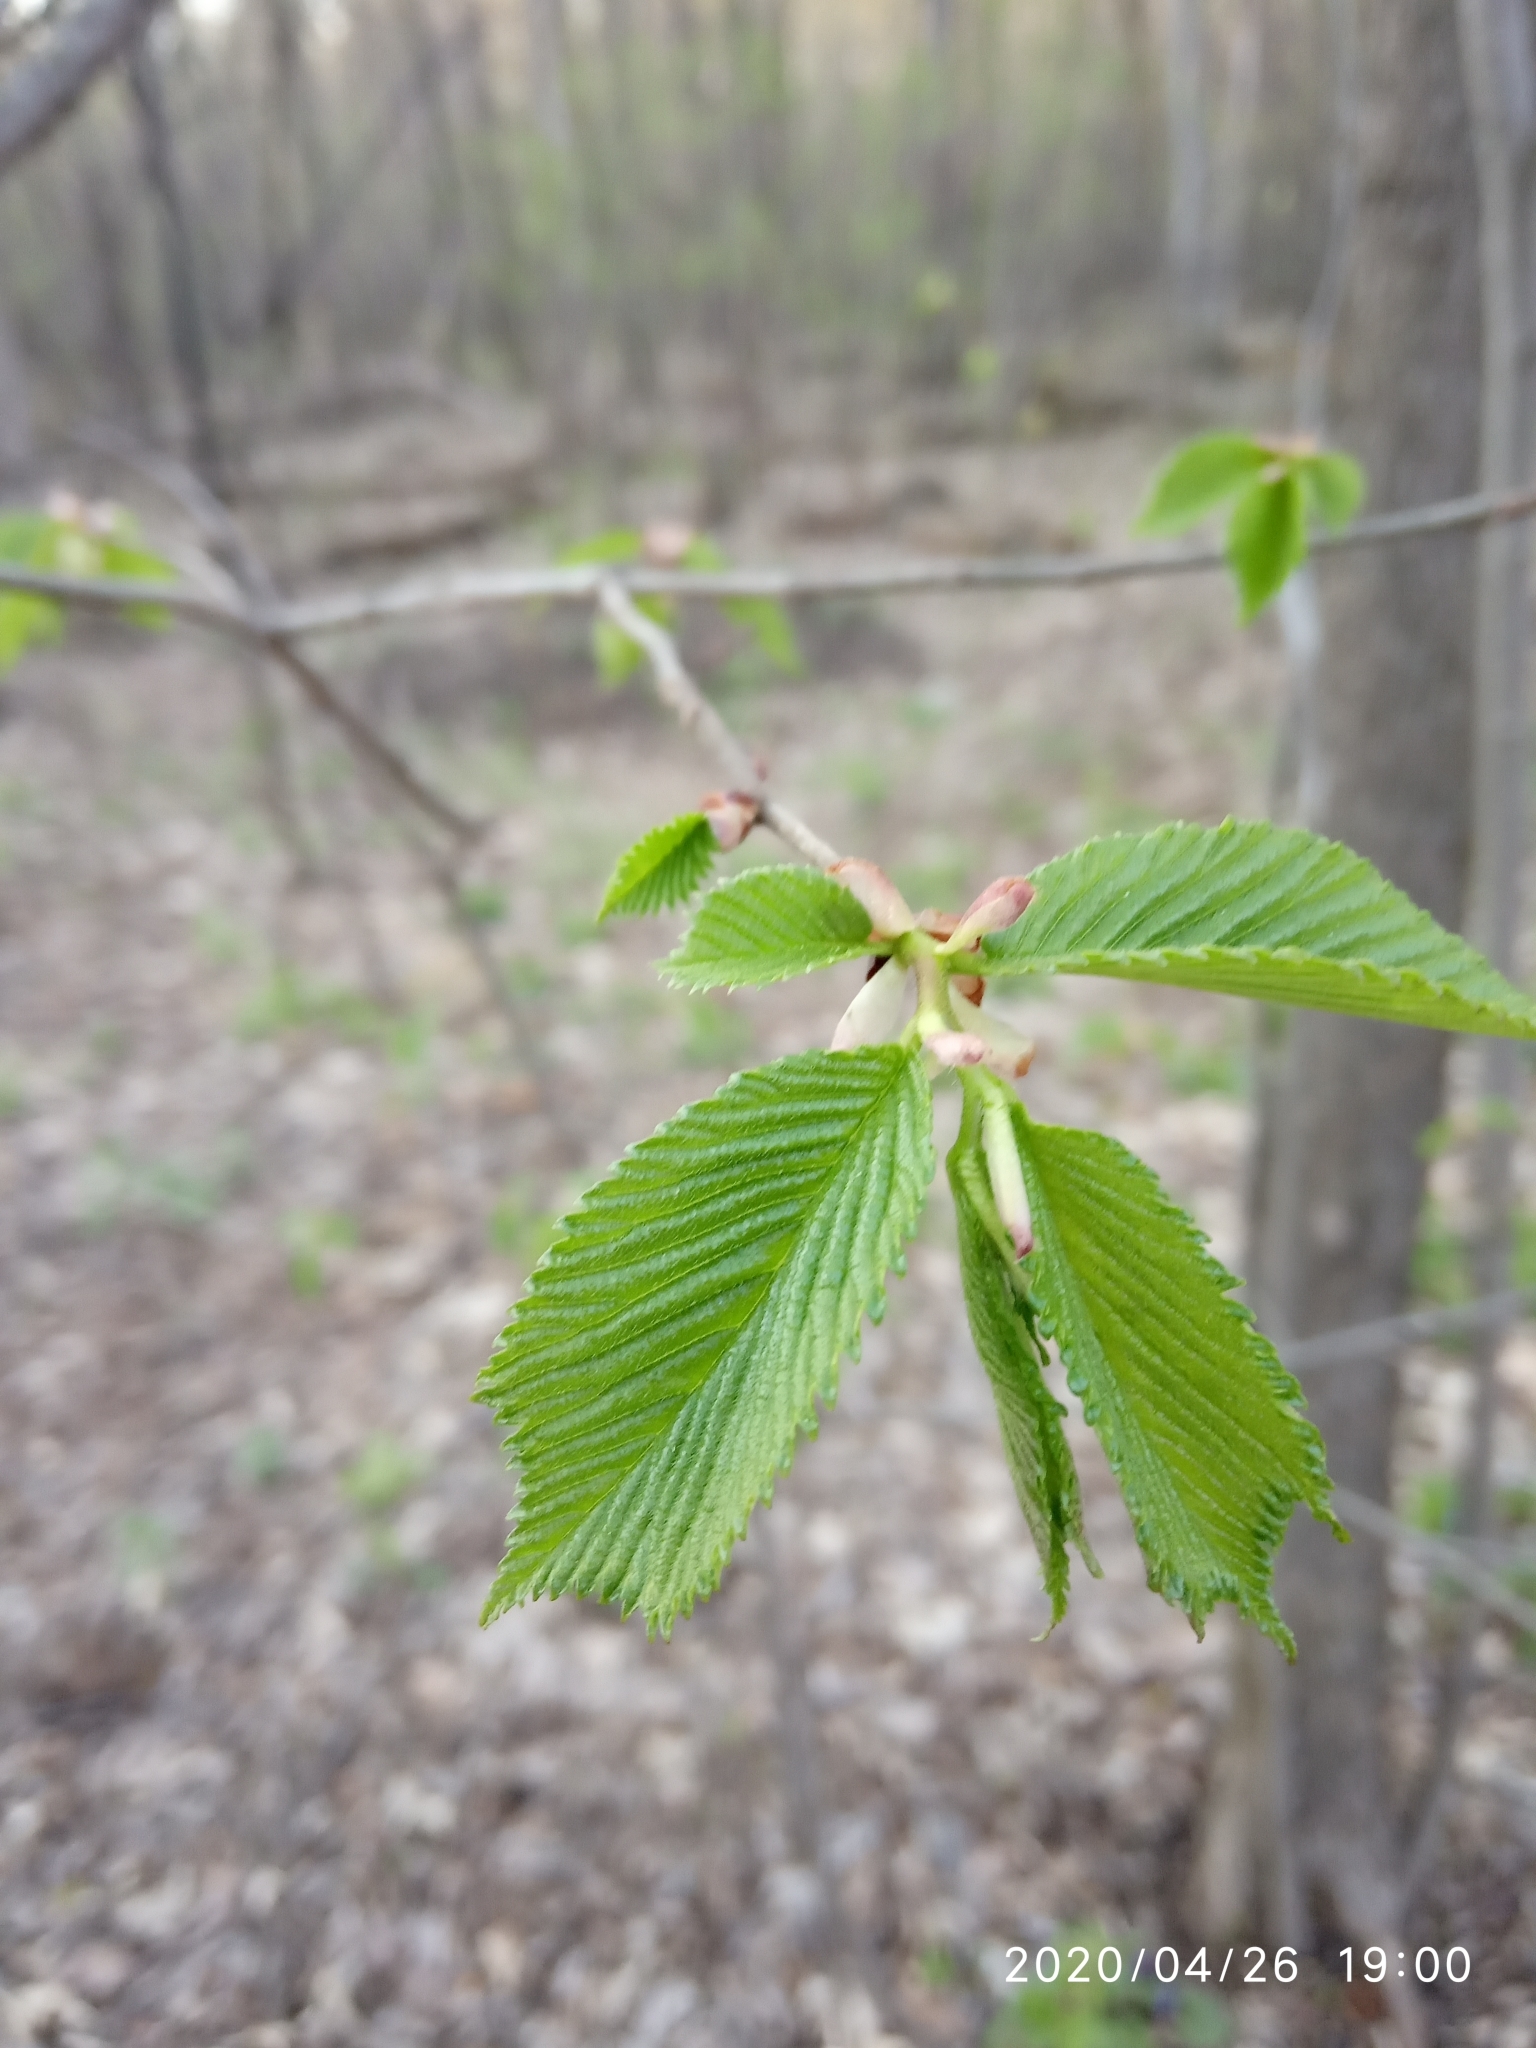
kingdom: Plantae
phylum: Tracheophyta
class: Magnoliopsida
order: Rosales
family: Ulmaceae
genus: Ulmus
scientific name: Ulmus glabra
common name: Wych elm
